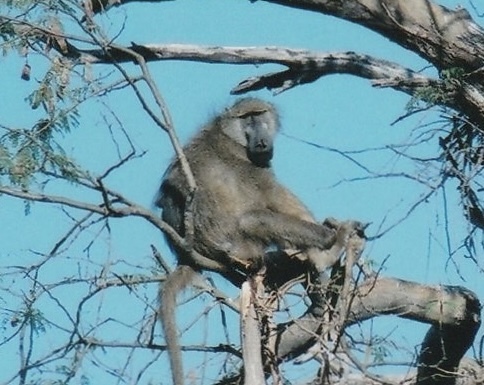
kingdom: Animalia
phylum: Chordata
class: Mammalia
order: Primates
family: Cercopithecidae
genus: Papio
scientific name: Papio ursinus
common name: Chacma baboon
